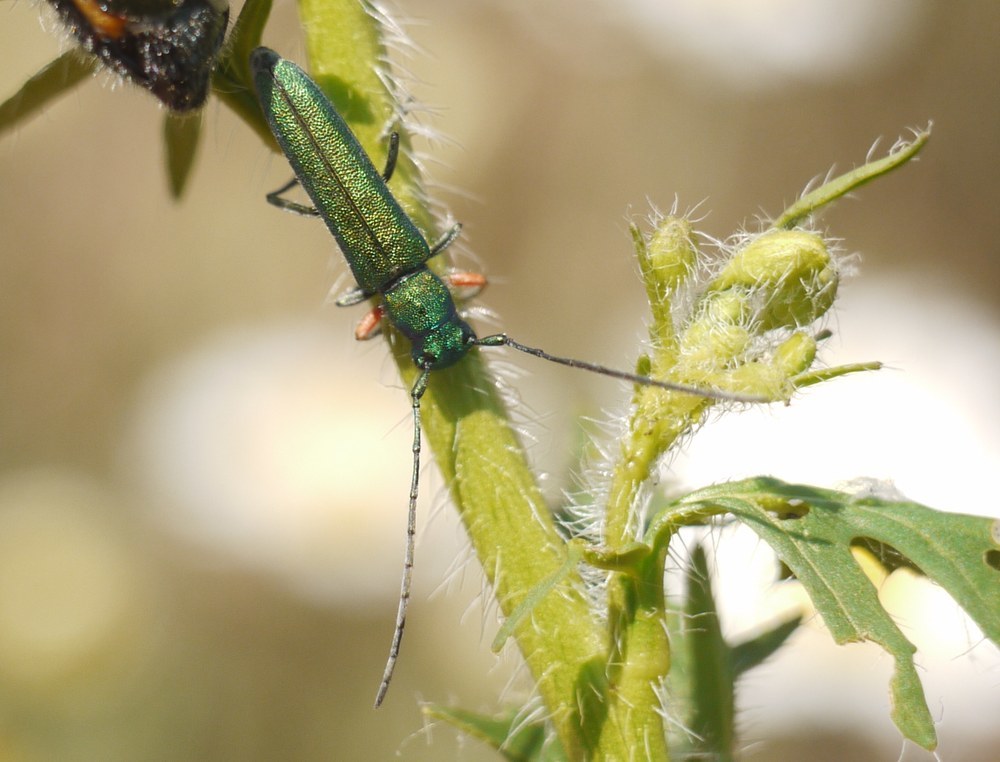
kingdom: Animalia
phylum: Arthropoda
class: Insecta
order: Coleoptera
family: Cerambycidae
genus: Phytoecia
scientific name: Phytoecia caerulea
